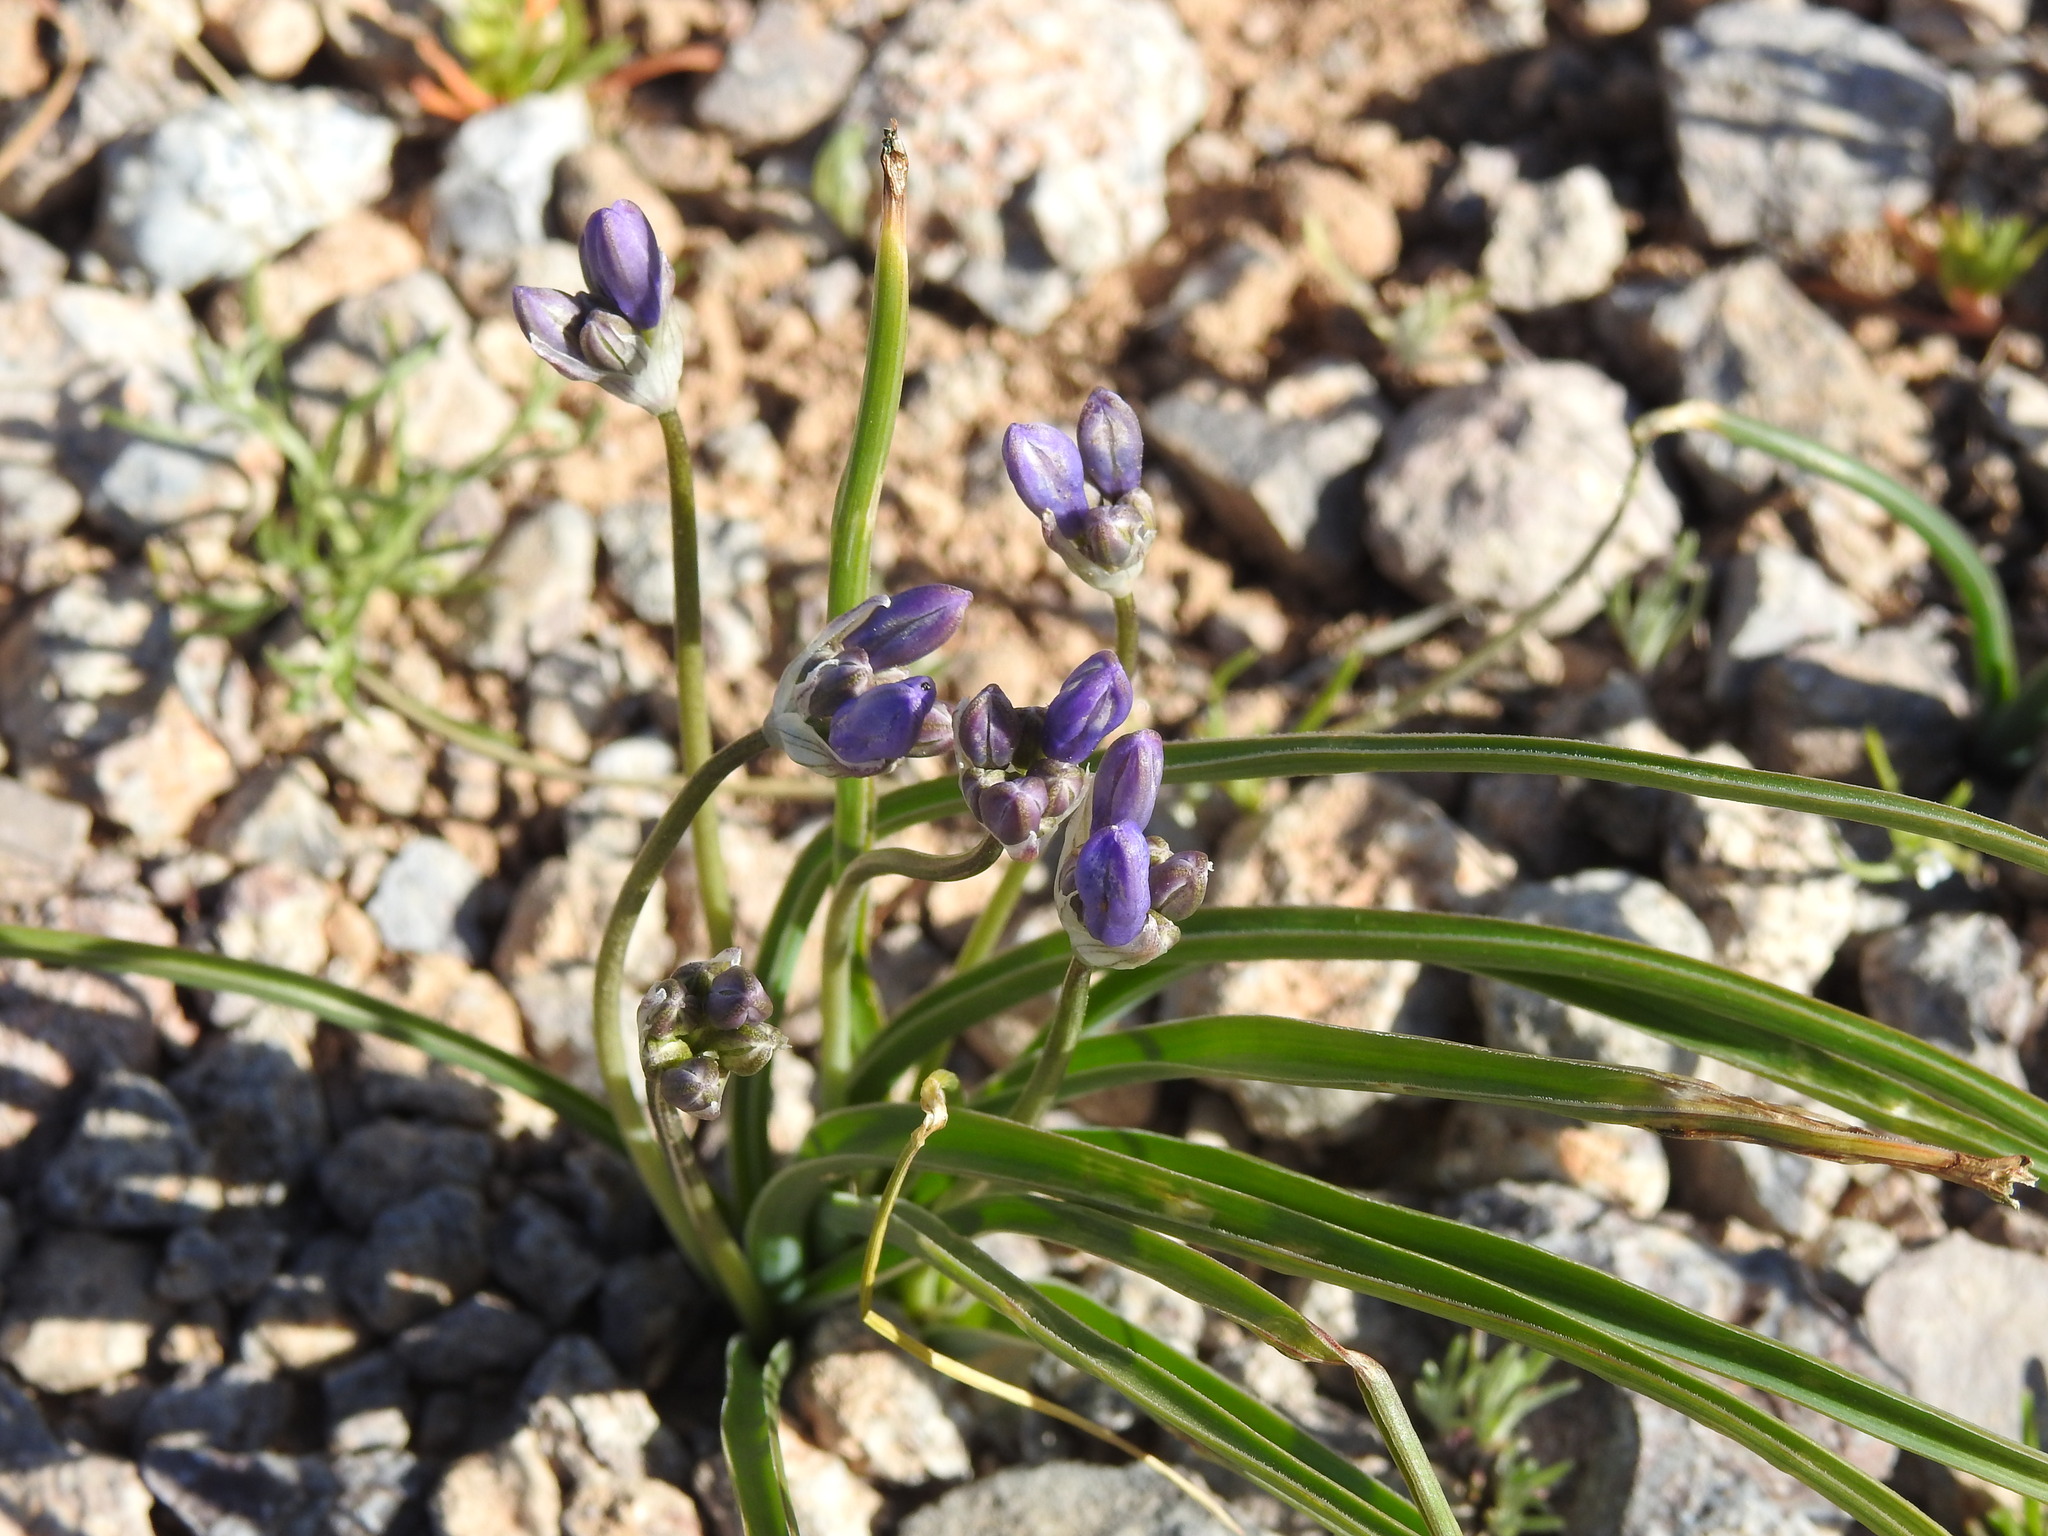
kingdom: Plantae
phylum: Tracheophyta
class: Liliopsida
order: Asparagales
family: Asparagaceae
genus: Dipterostemon
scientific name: Dipterostemon capitatus
